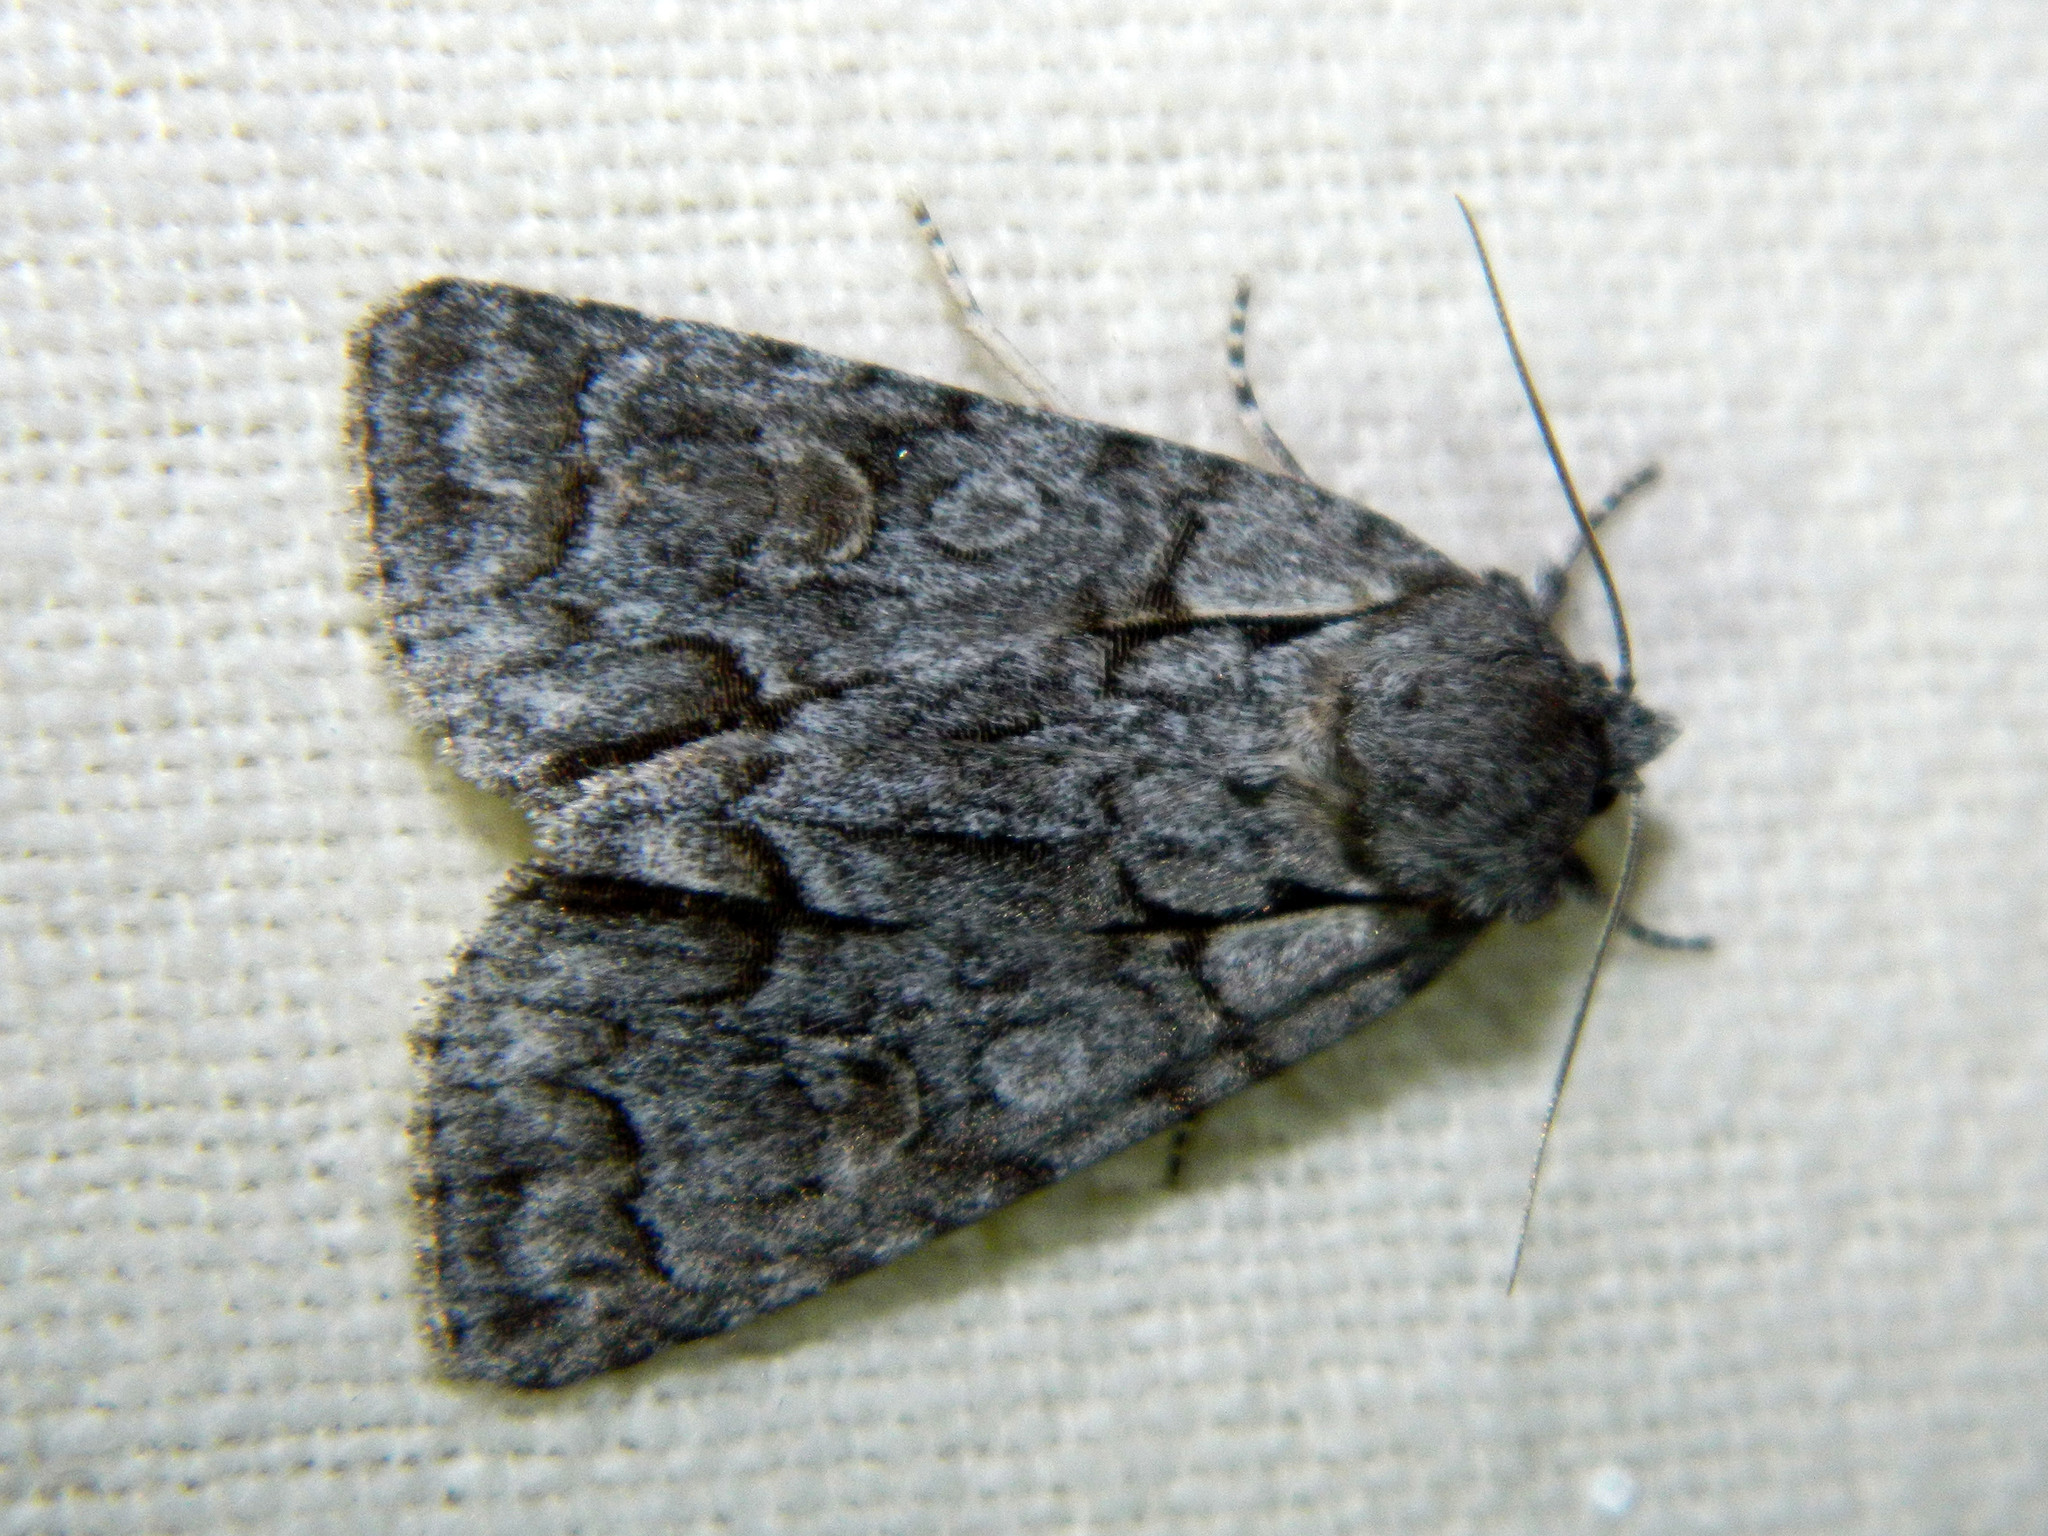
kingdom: Animalia
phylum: Arthropoda
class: Insecta
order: Lepidoptera
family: Noctuidae
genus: Acronicta
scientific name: Acronicta grisea
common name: Gray dagger
